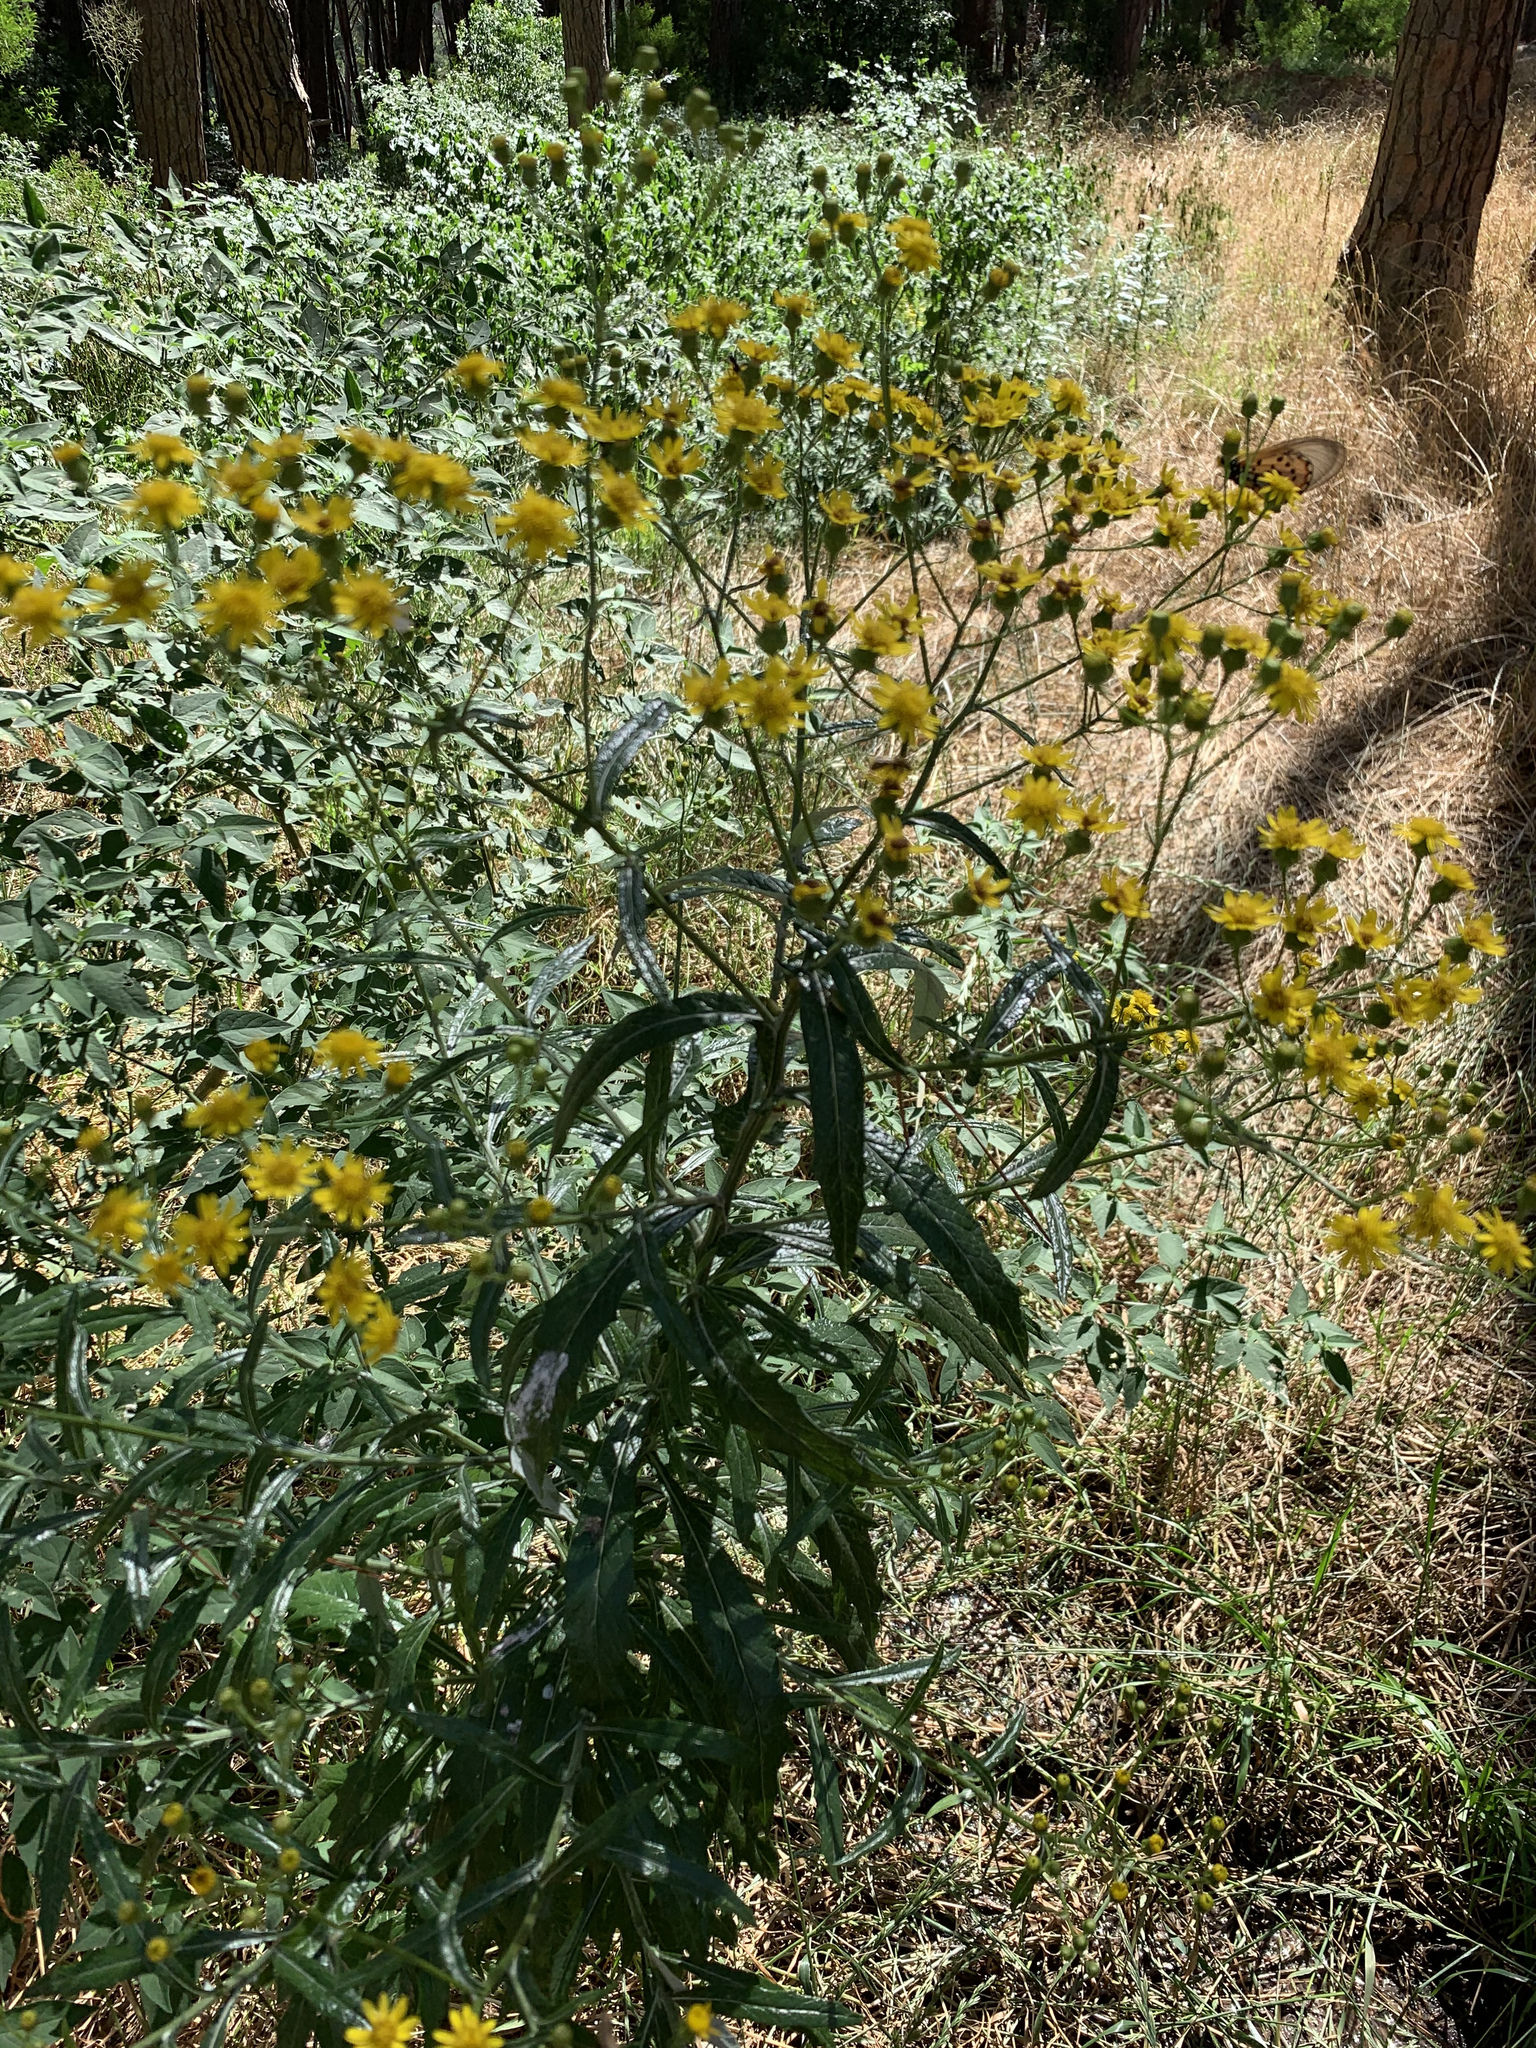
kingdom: Plantae
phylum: Tracheophyta
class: Magnoliopsida
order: Asterales
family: Asteraceae
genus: Senecio
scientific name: Senecio pterophorus
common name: Shoddy ragwort
